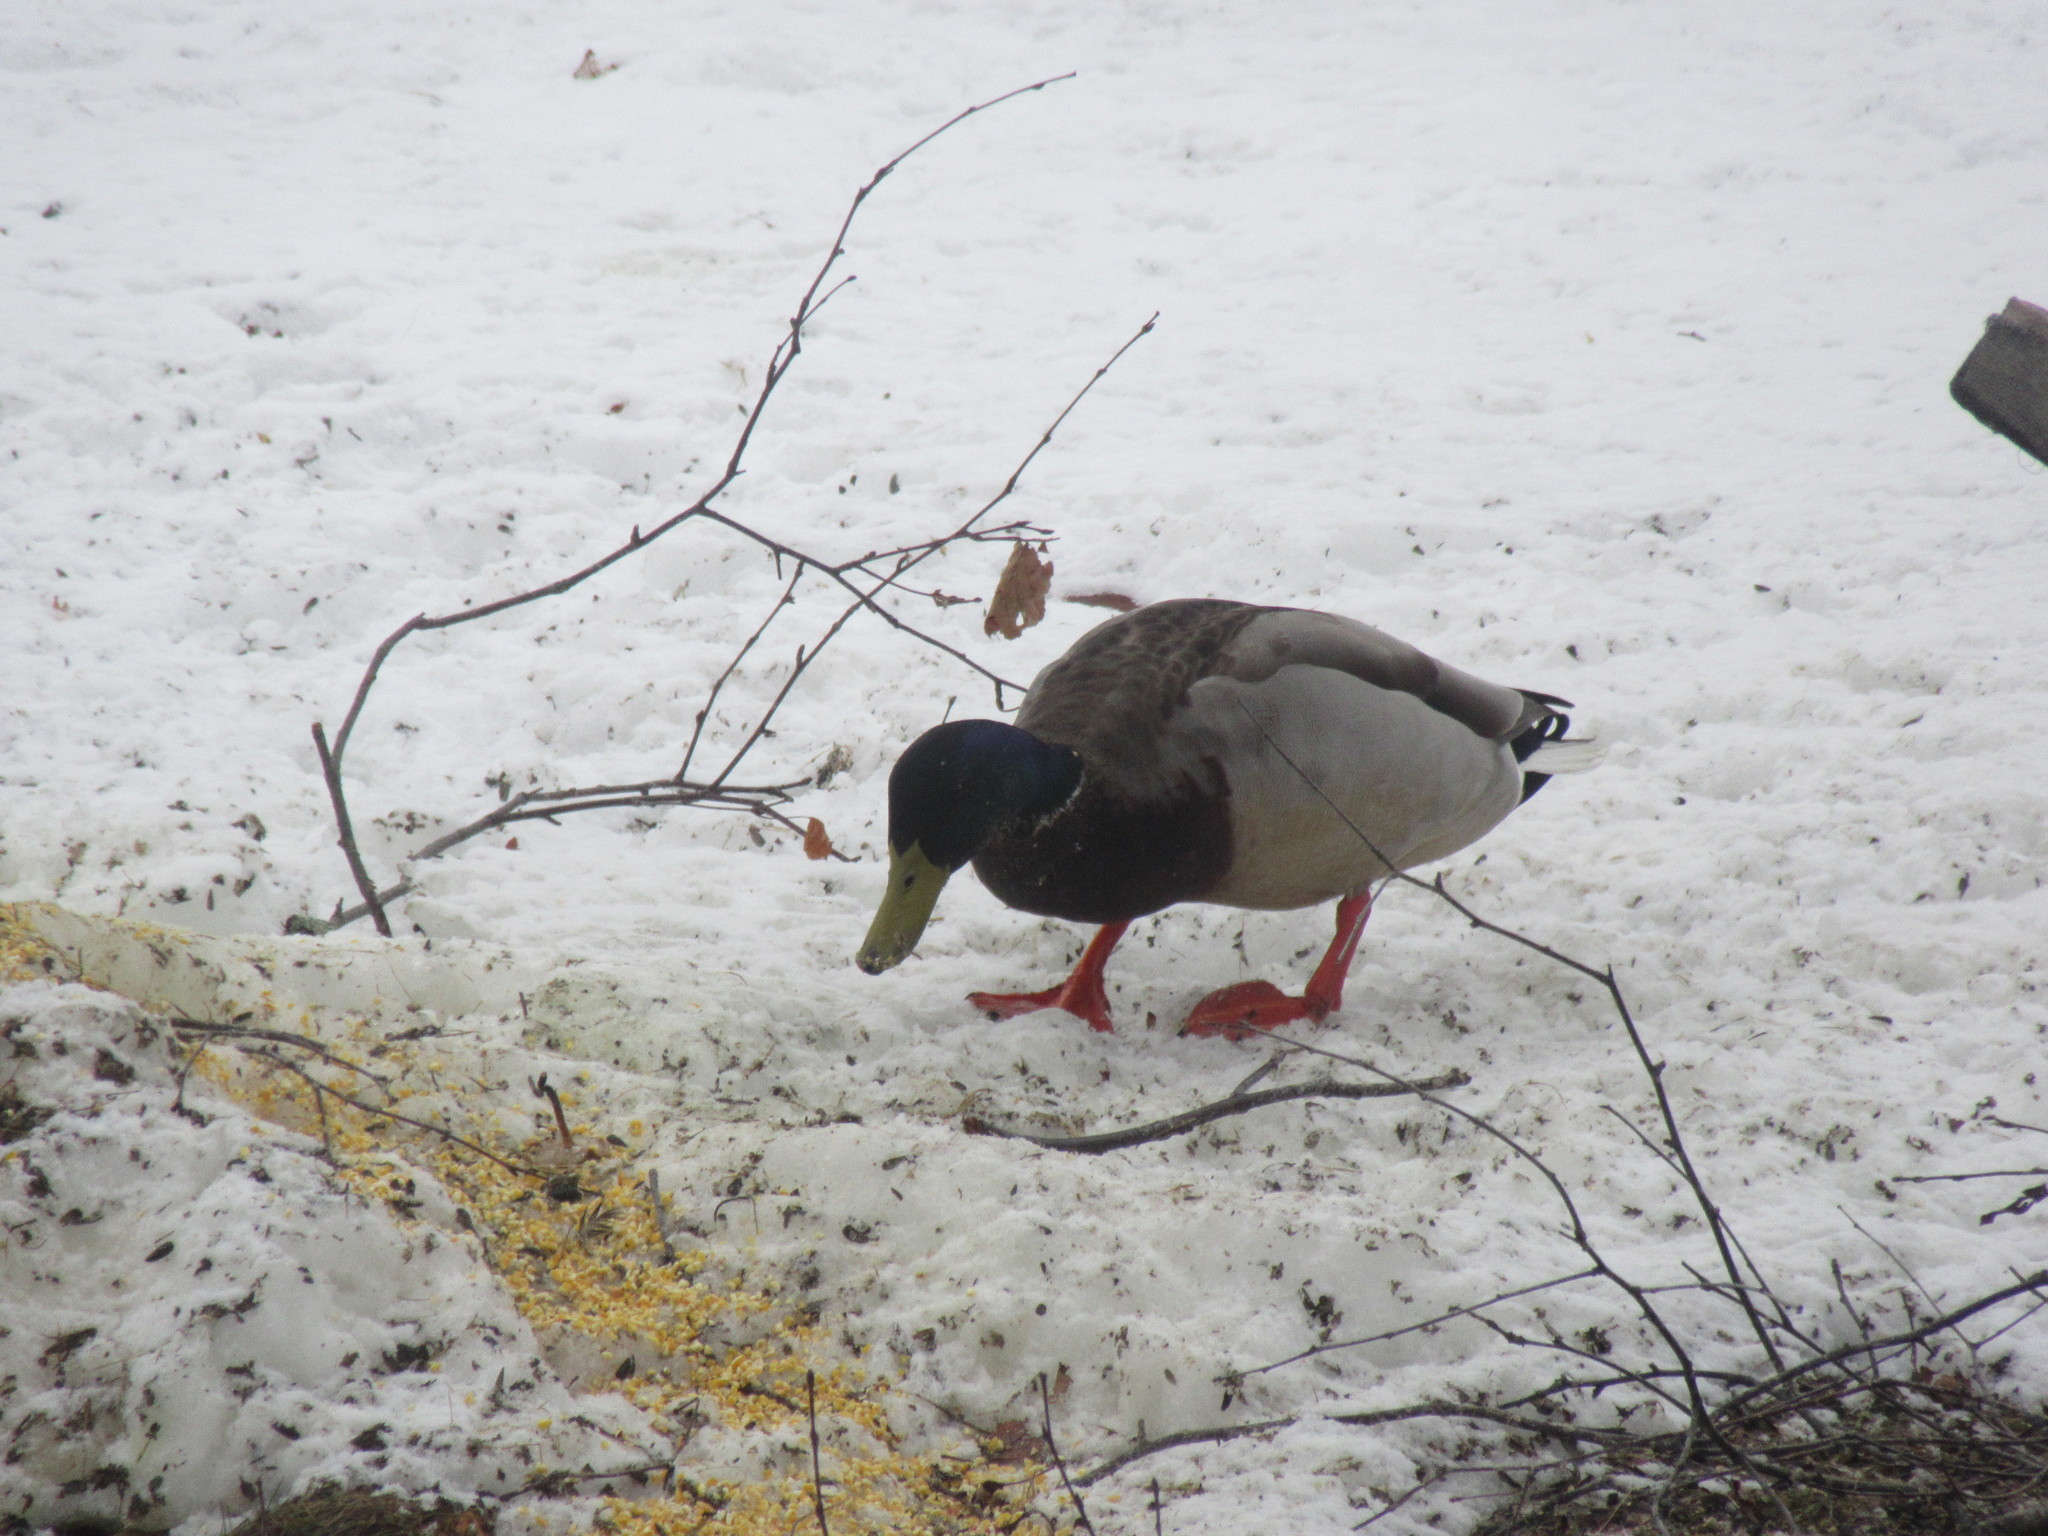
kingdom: Animalia
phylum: Chordata
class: Aves
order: Anseriformes
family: Anatidae
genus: Anas
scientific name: Anas platyrhynchos
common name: Mallard
